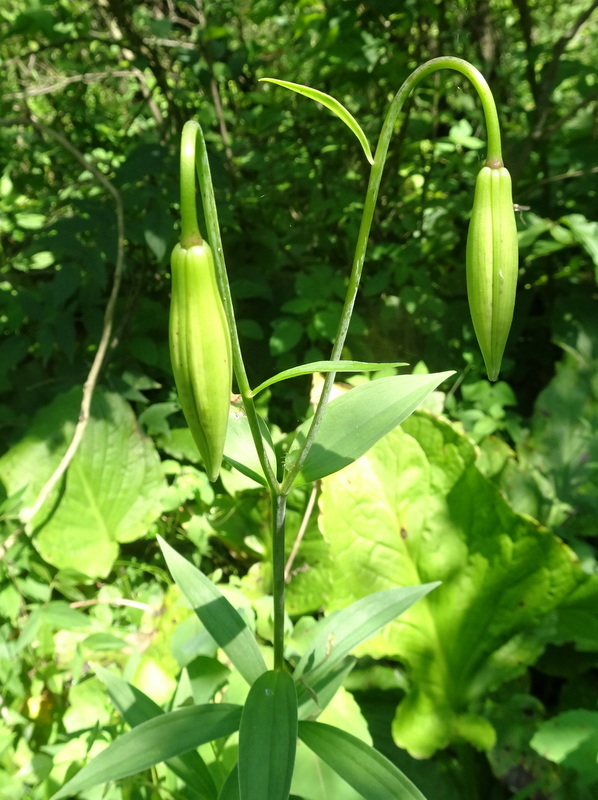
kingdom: Plantae
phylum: Tracheophyta
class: Liliopsida
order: Liliales
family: Liliaceae
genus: Lilium
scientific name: Lilium michiganense
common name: Michigan lily
